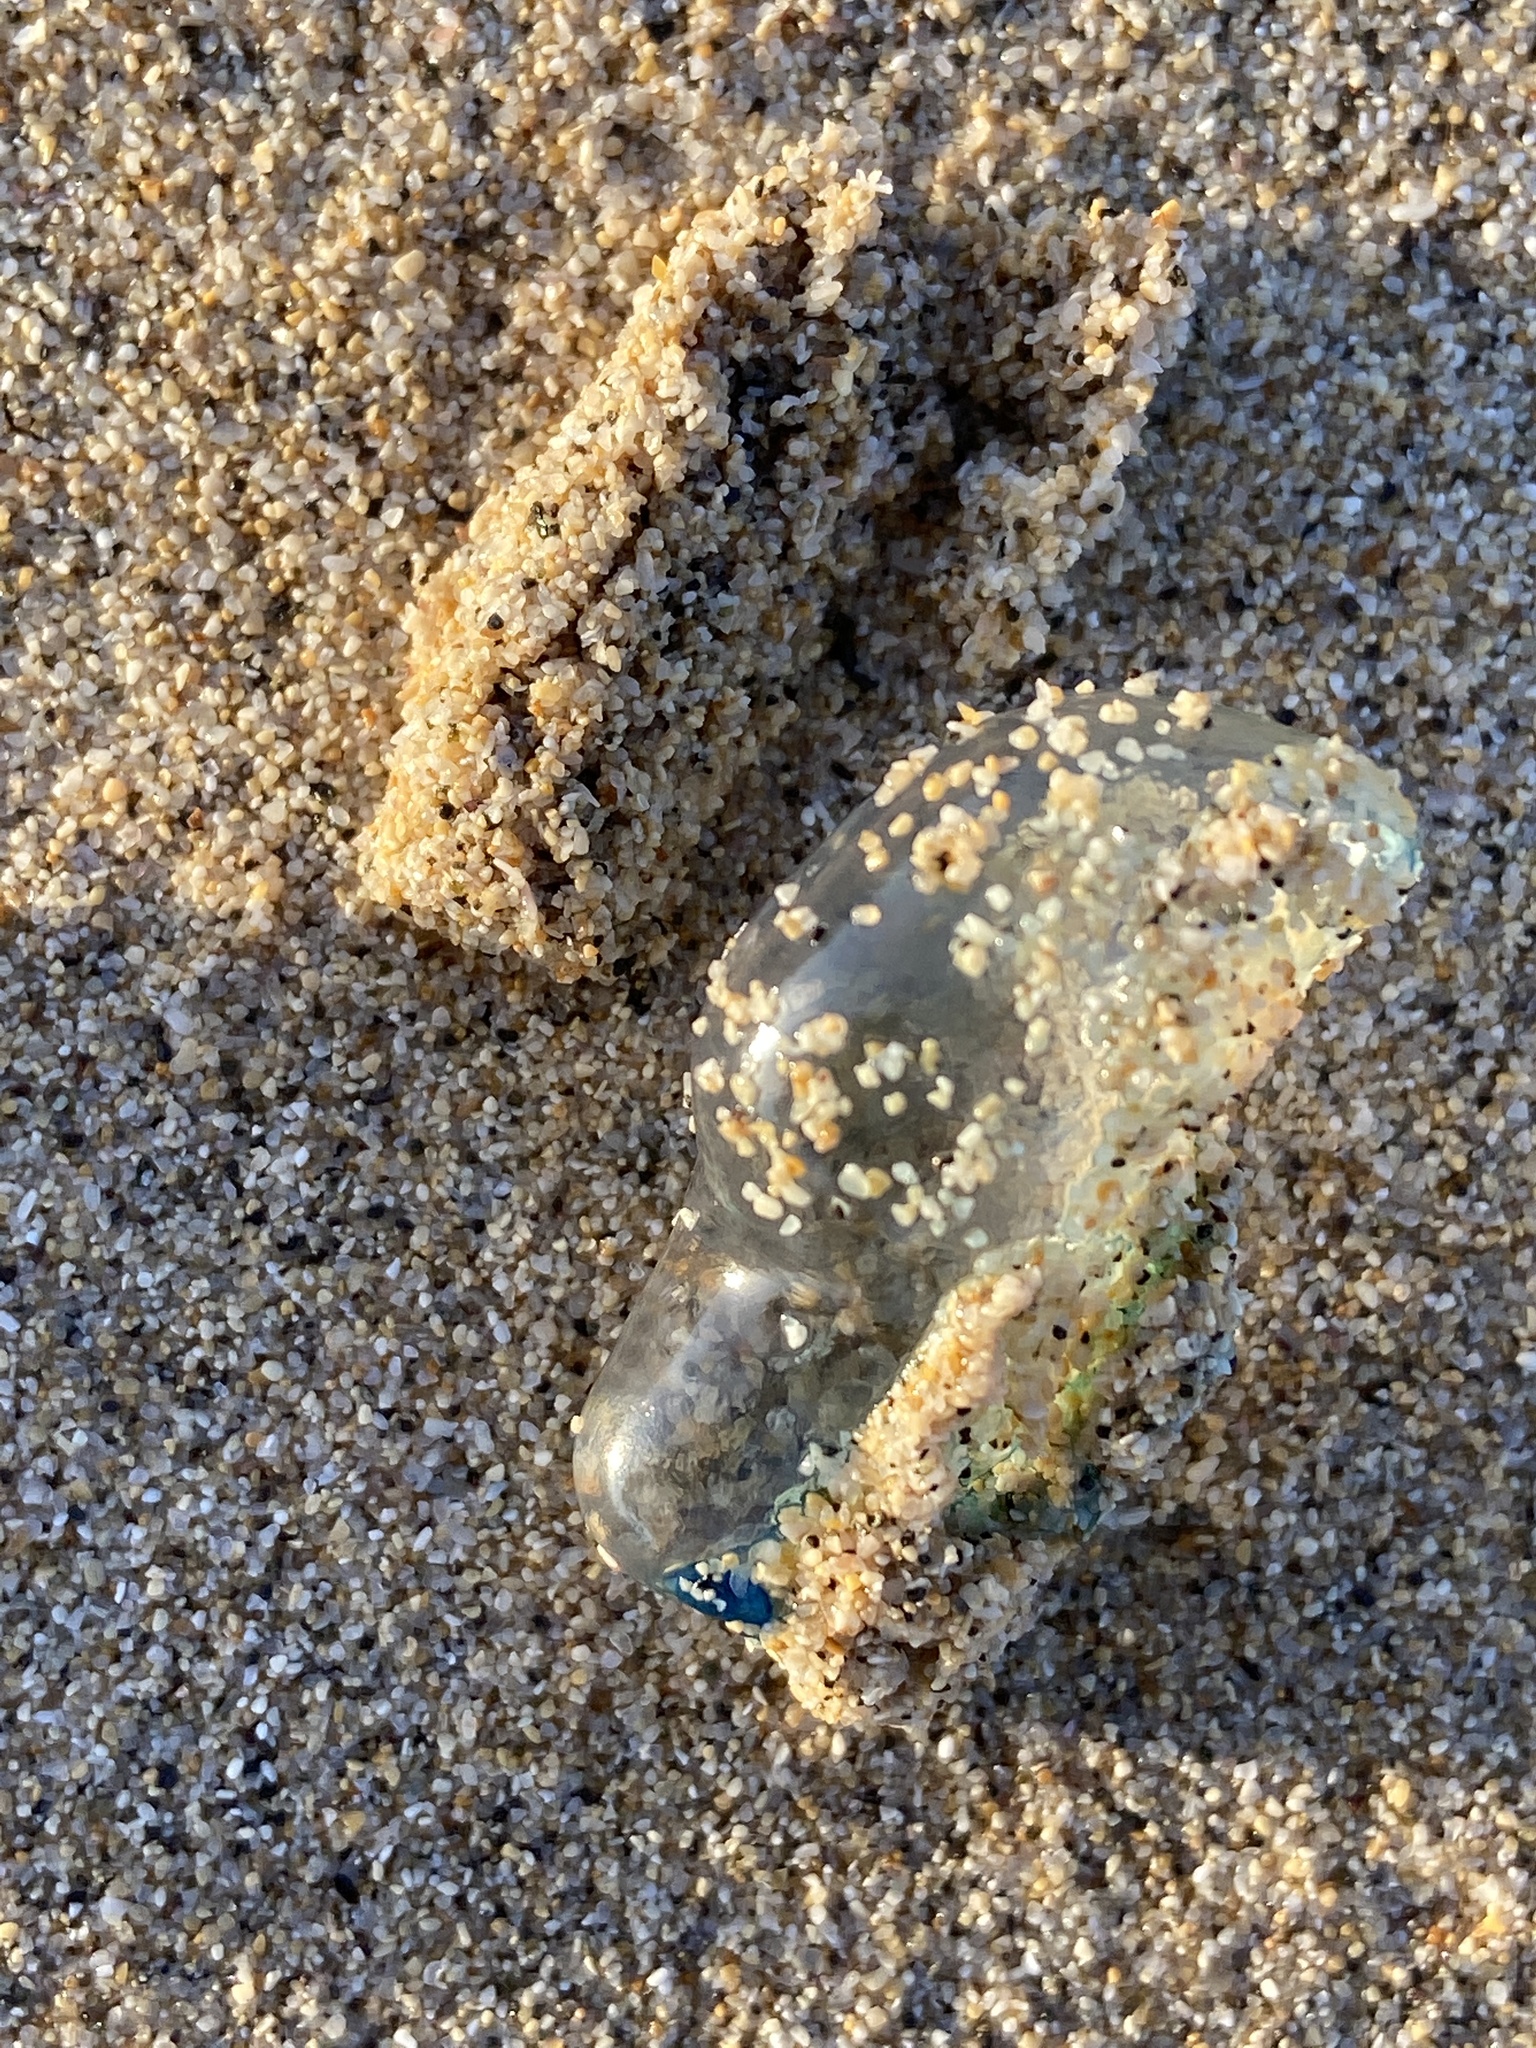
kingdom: Animalia
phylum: Cnidaria
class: Hydrozoa
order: Siphonophorae
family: Physaliidae
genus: Physalia
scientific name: Physalia physalis
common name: Portuguese man-of-war
